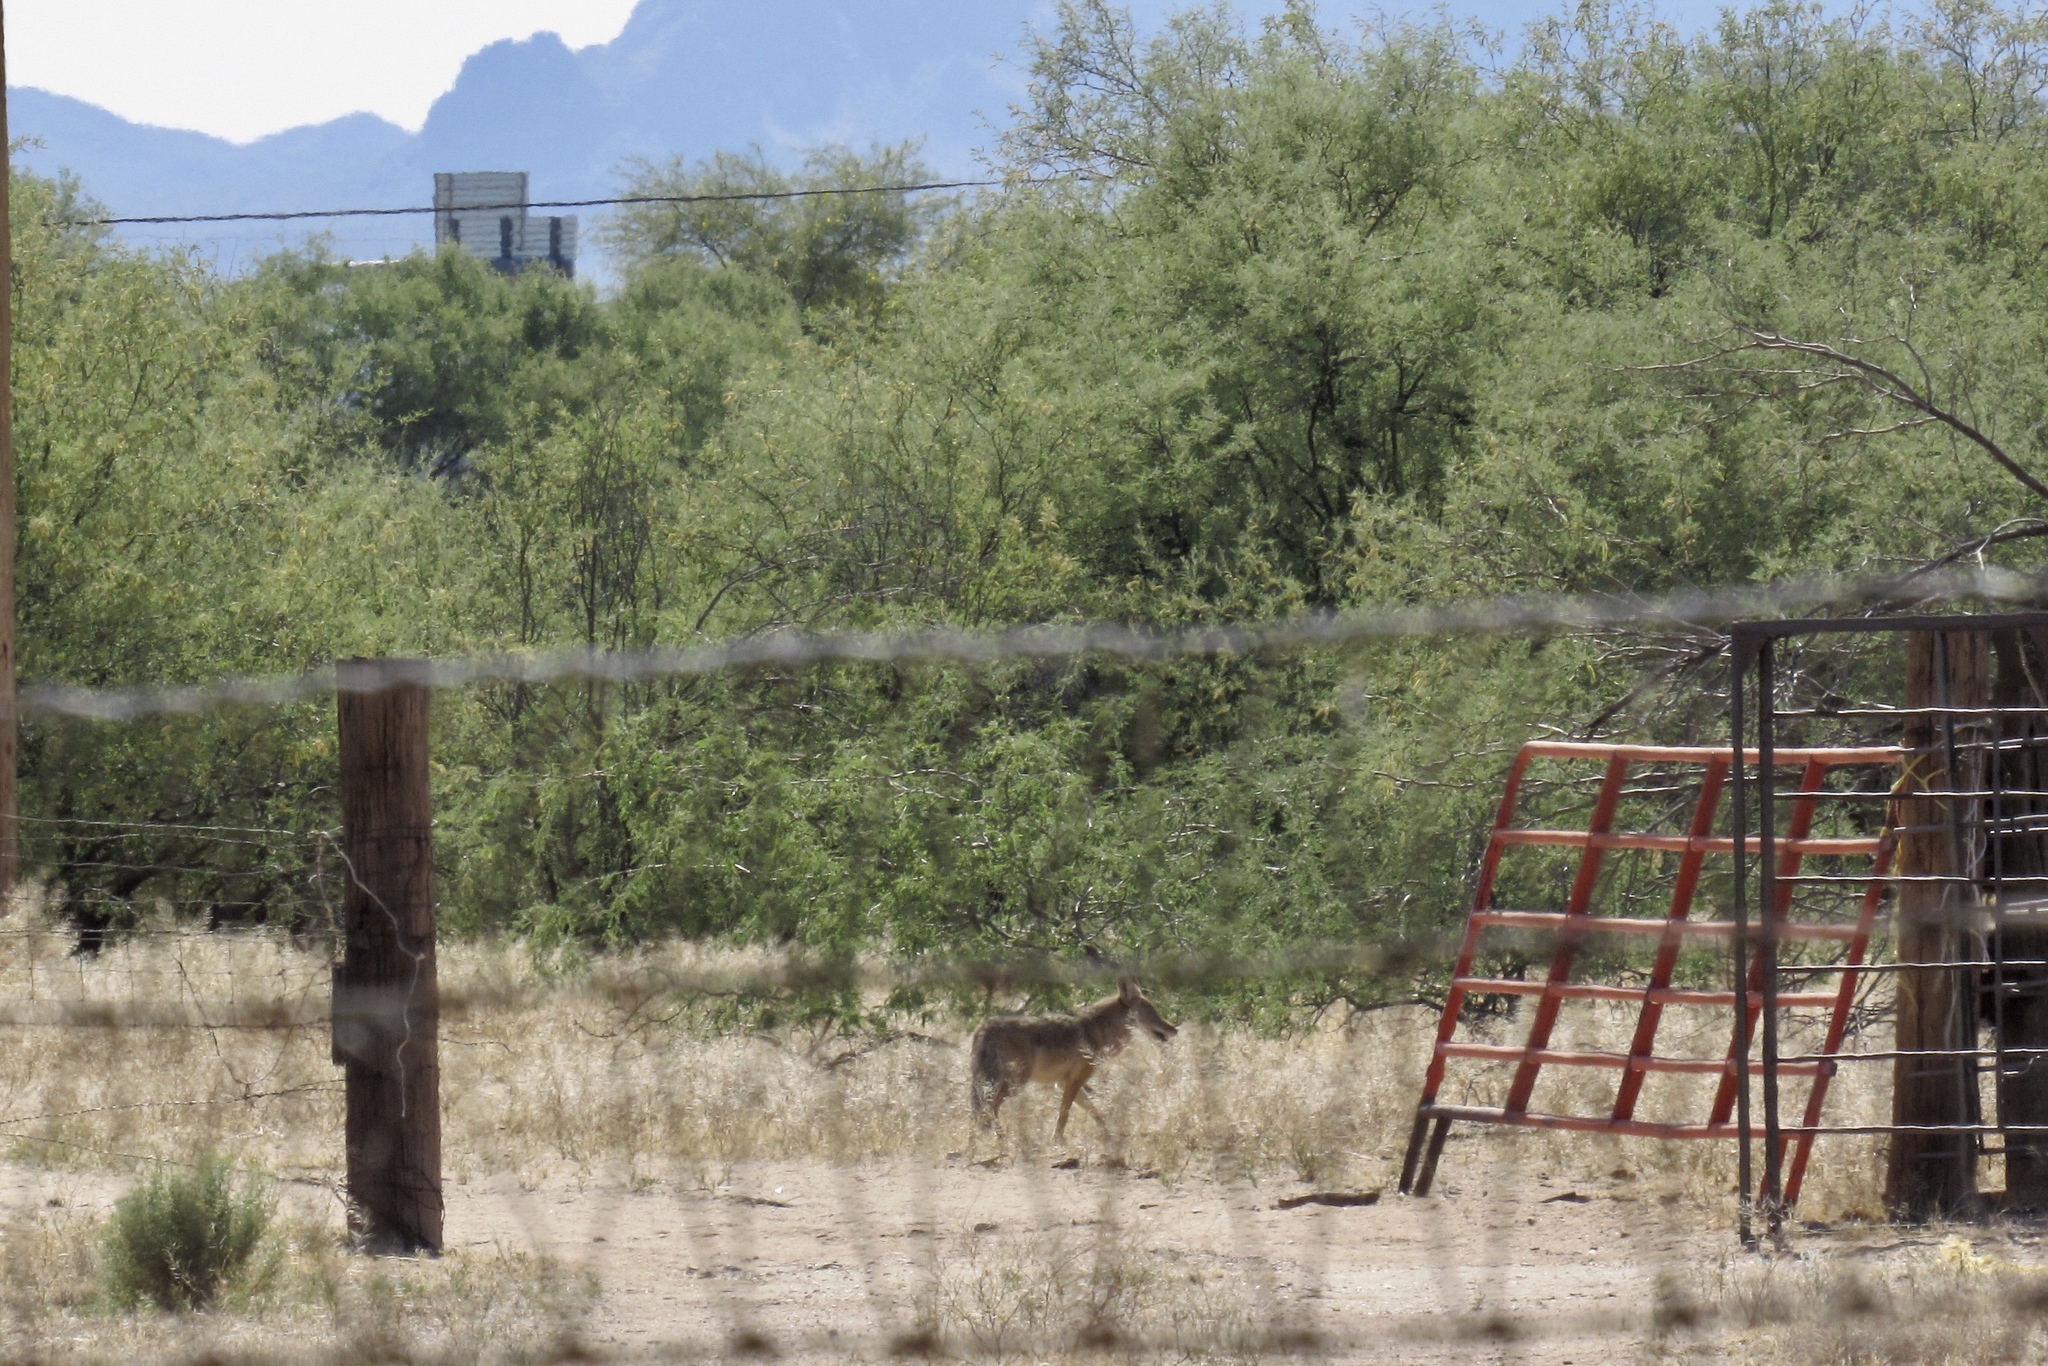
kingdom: Animalia
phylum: Chordata
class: Mammalia
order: Carnivora
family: Canidae
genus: Canis
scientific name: Canis latrans
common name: Coyote
